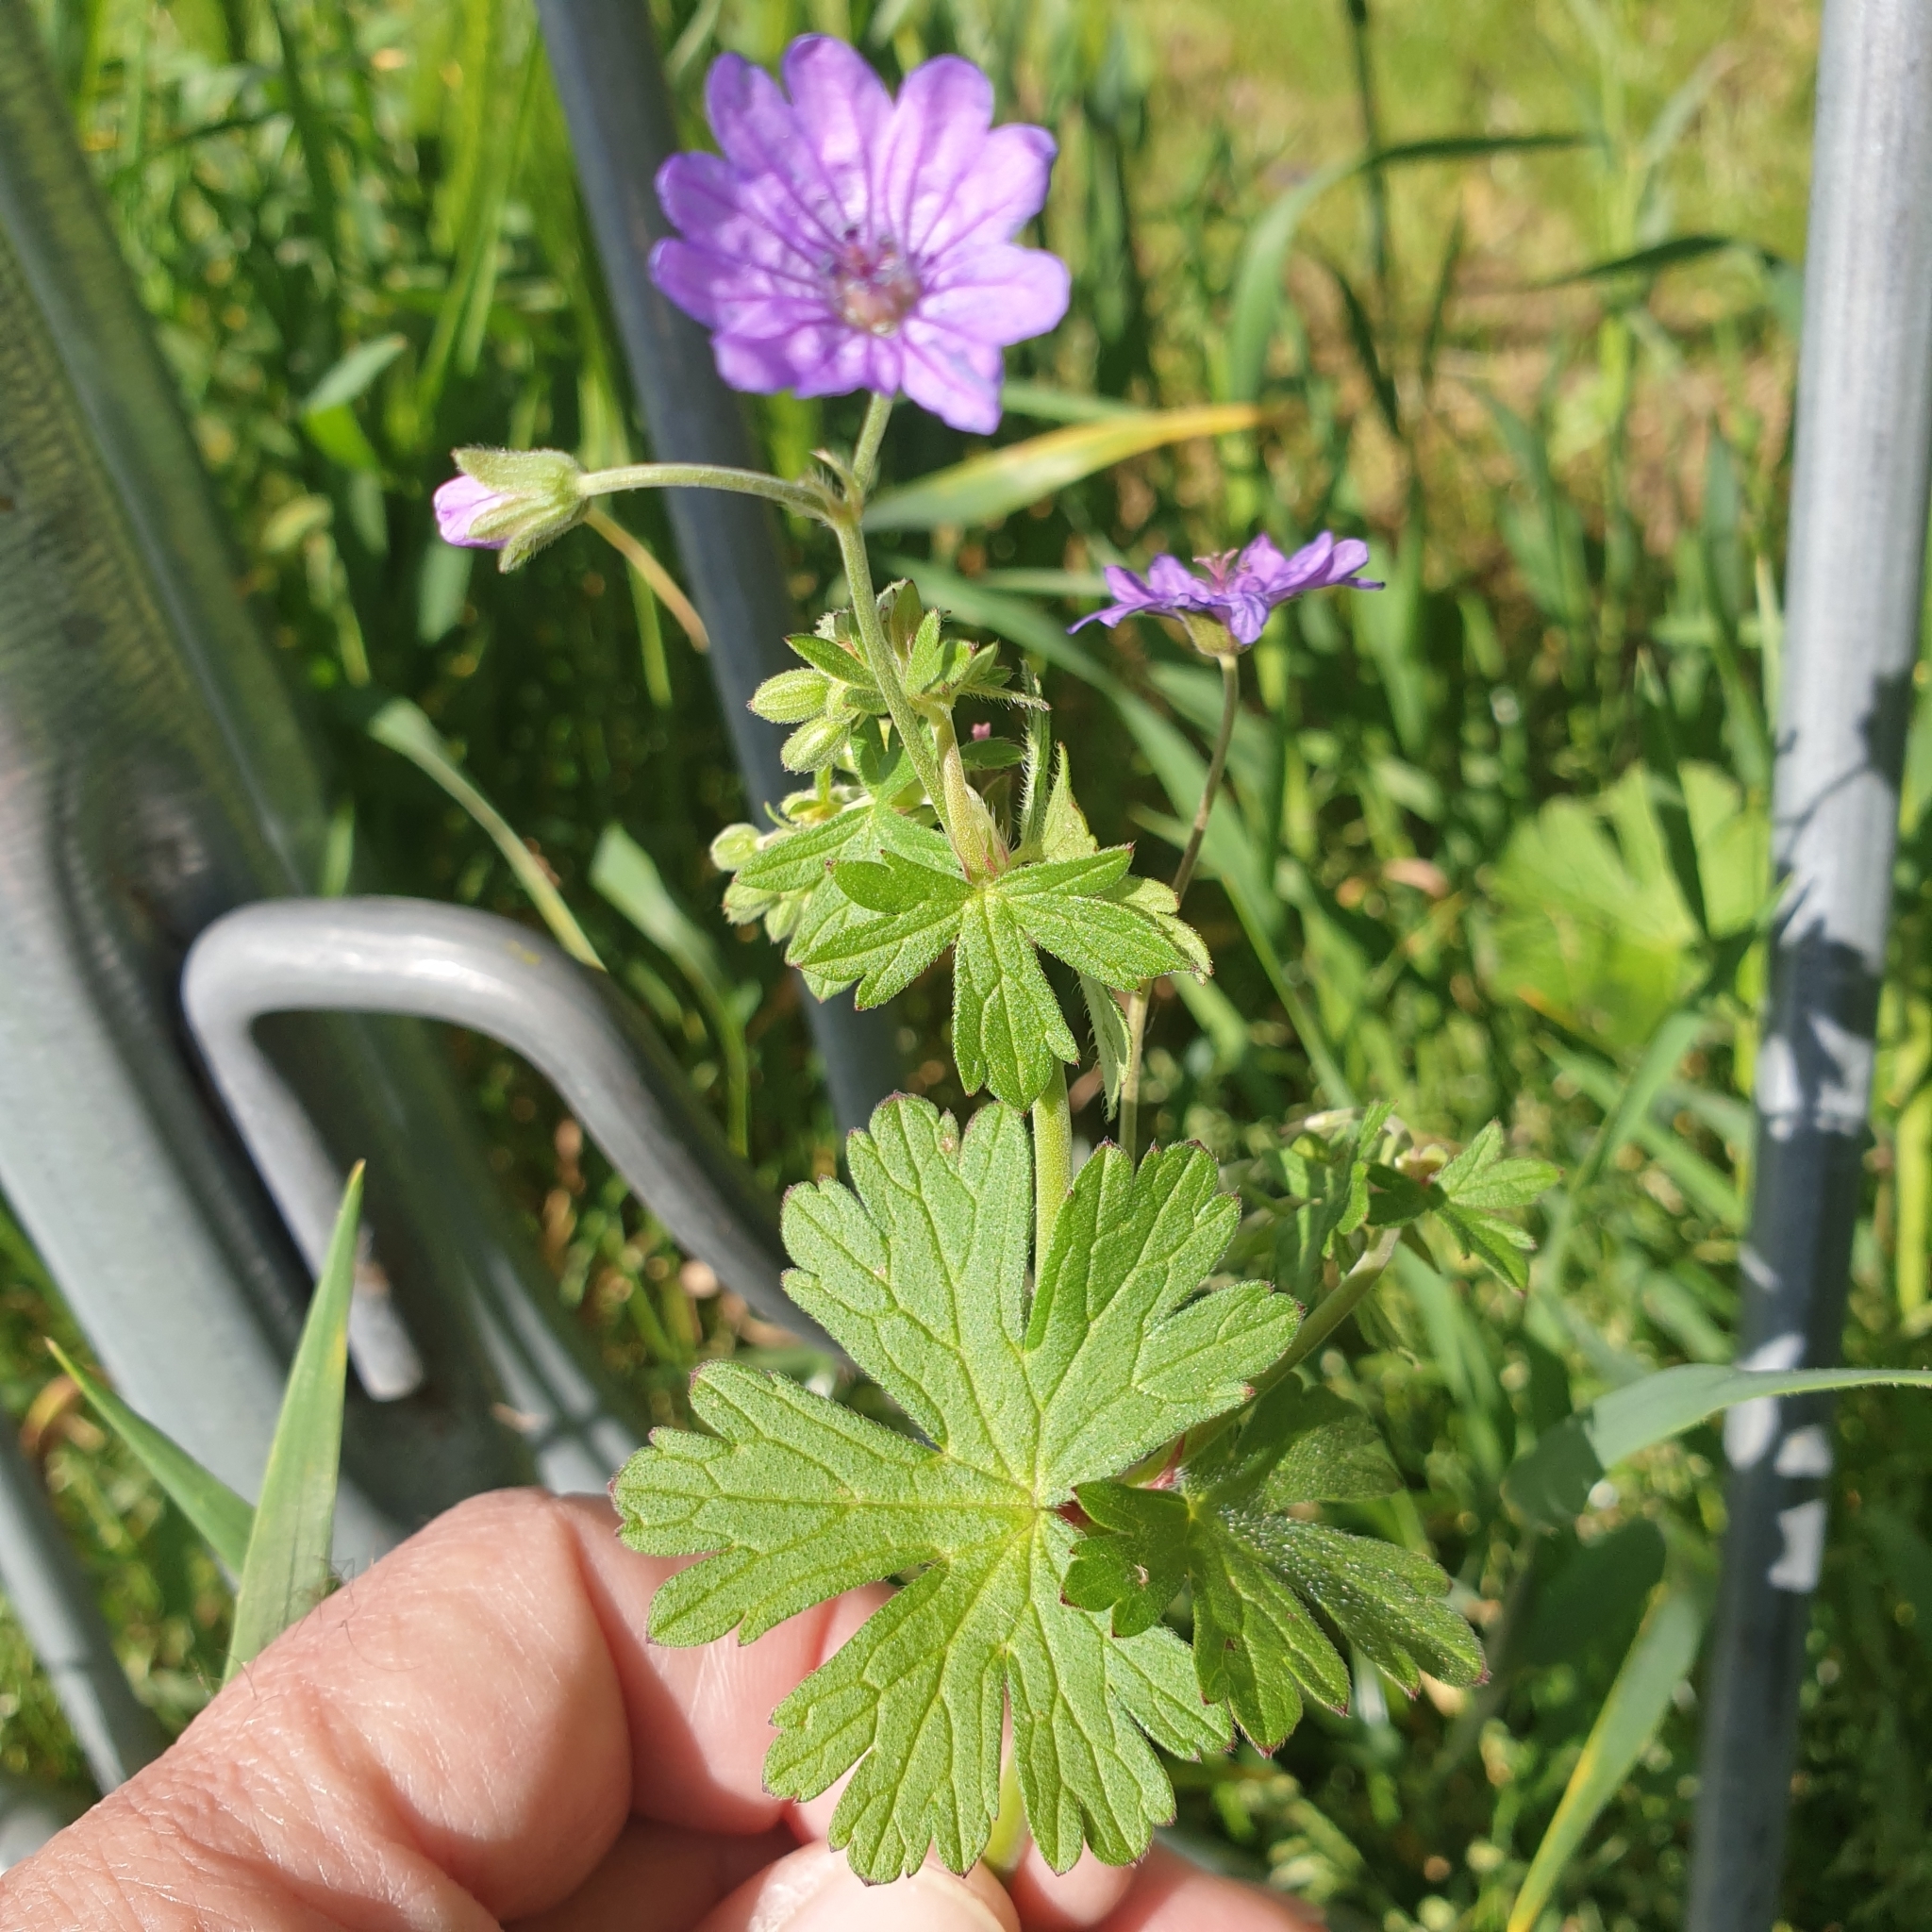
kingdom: Plantae
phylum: Tracheophyta
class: Magnoliopsida
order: Geraniales
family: Geraniaceae
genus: Geranium
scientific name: Geranium pyrenaicum
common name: Hedgerow crane's-bill
